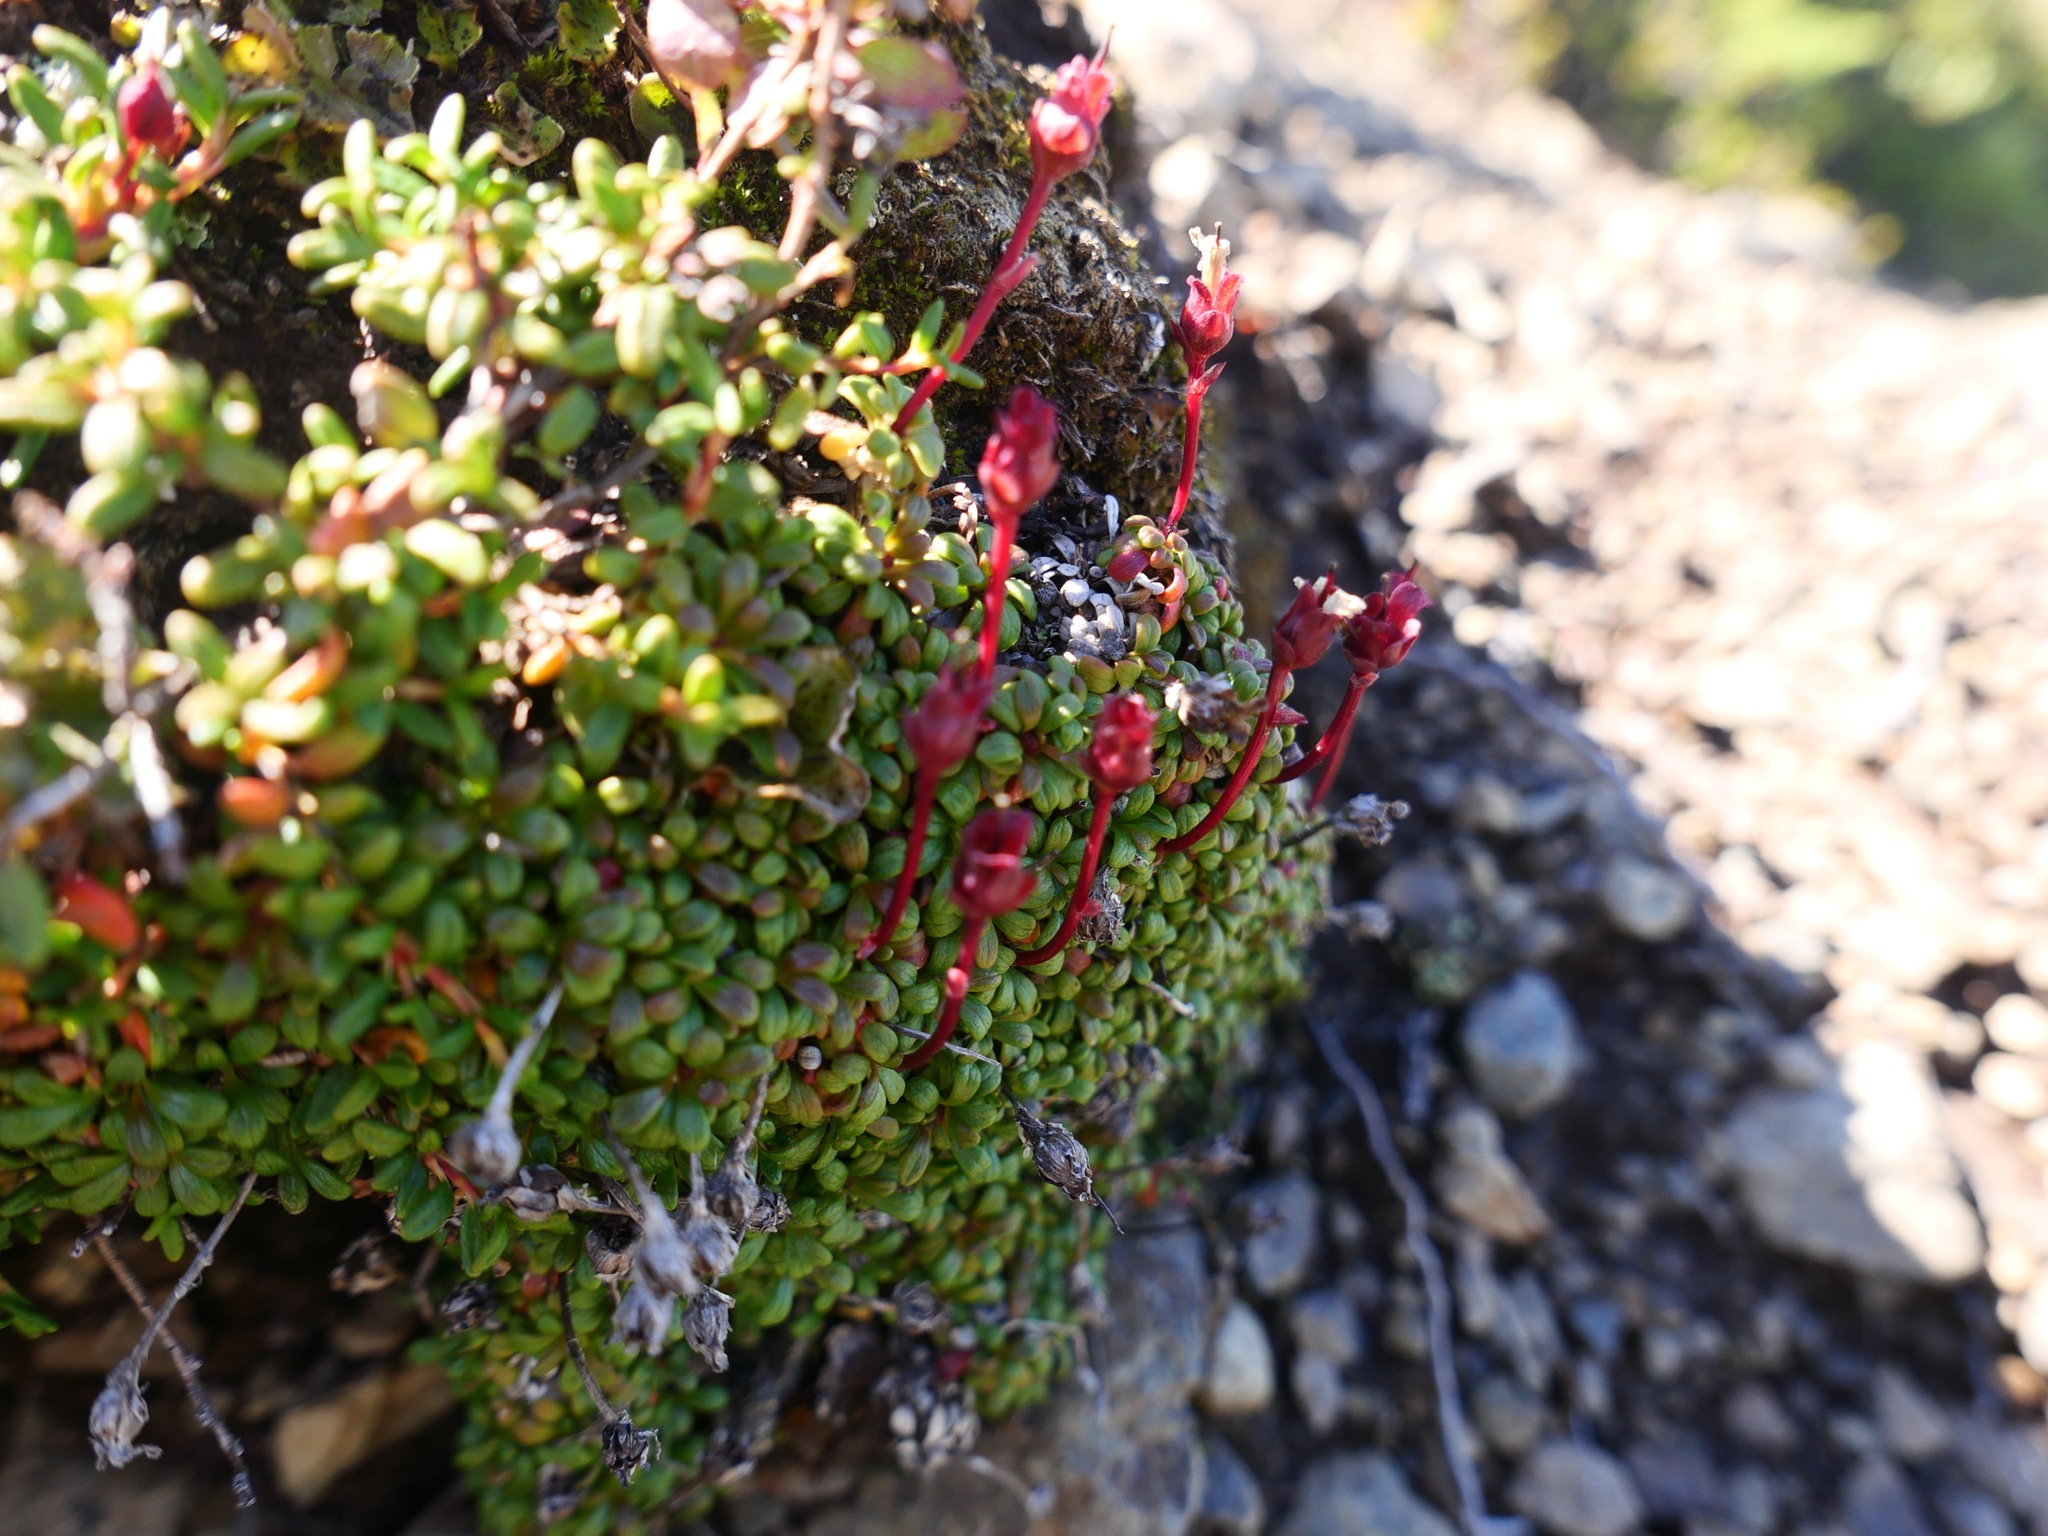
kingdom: Plantae
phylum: Tracheophyta
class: Magnoliopsida
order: Ericales
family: Diapensiaceae
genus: Diapensia
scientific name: Diapensia obovata
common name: Alaska diapensia
